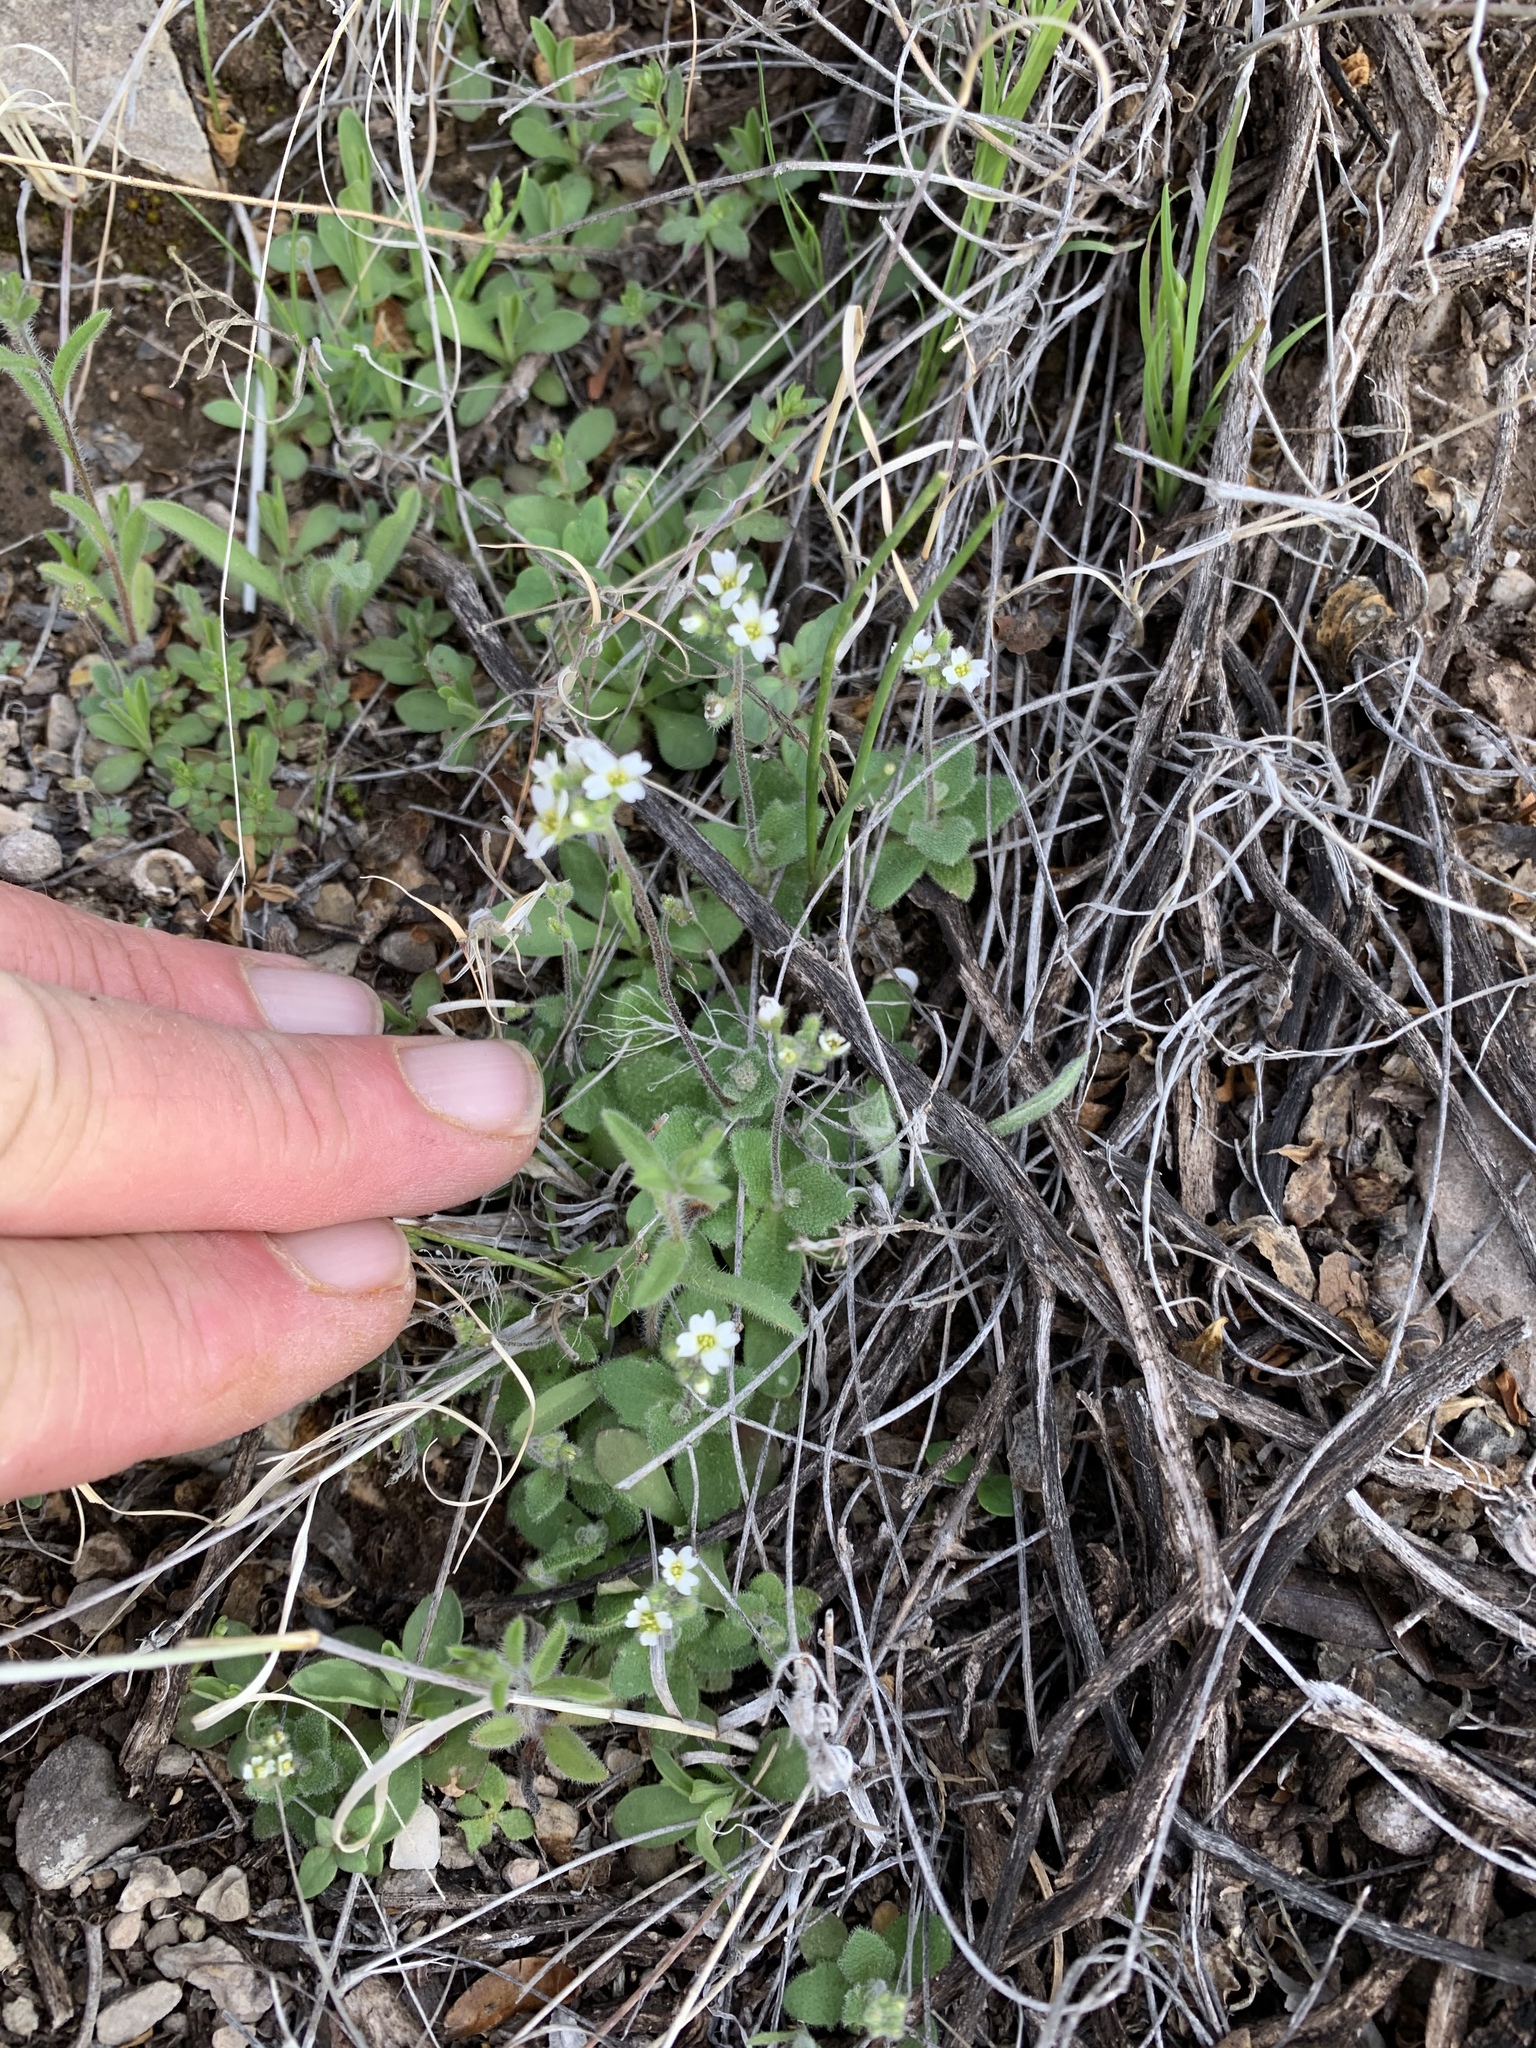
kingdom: Plantae
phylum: Tracheophyta
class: Magnoliopsida
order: Brassicales
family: Brassicaceae
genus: Tomostima
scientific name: Tomostima cuneifolia
